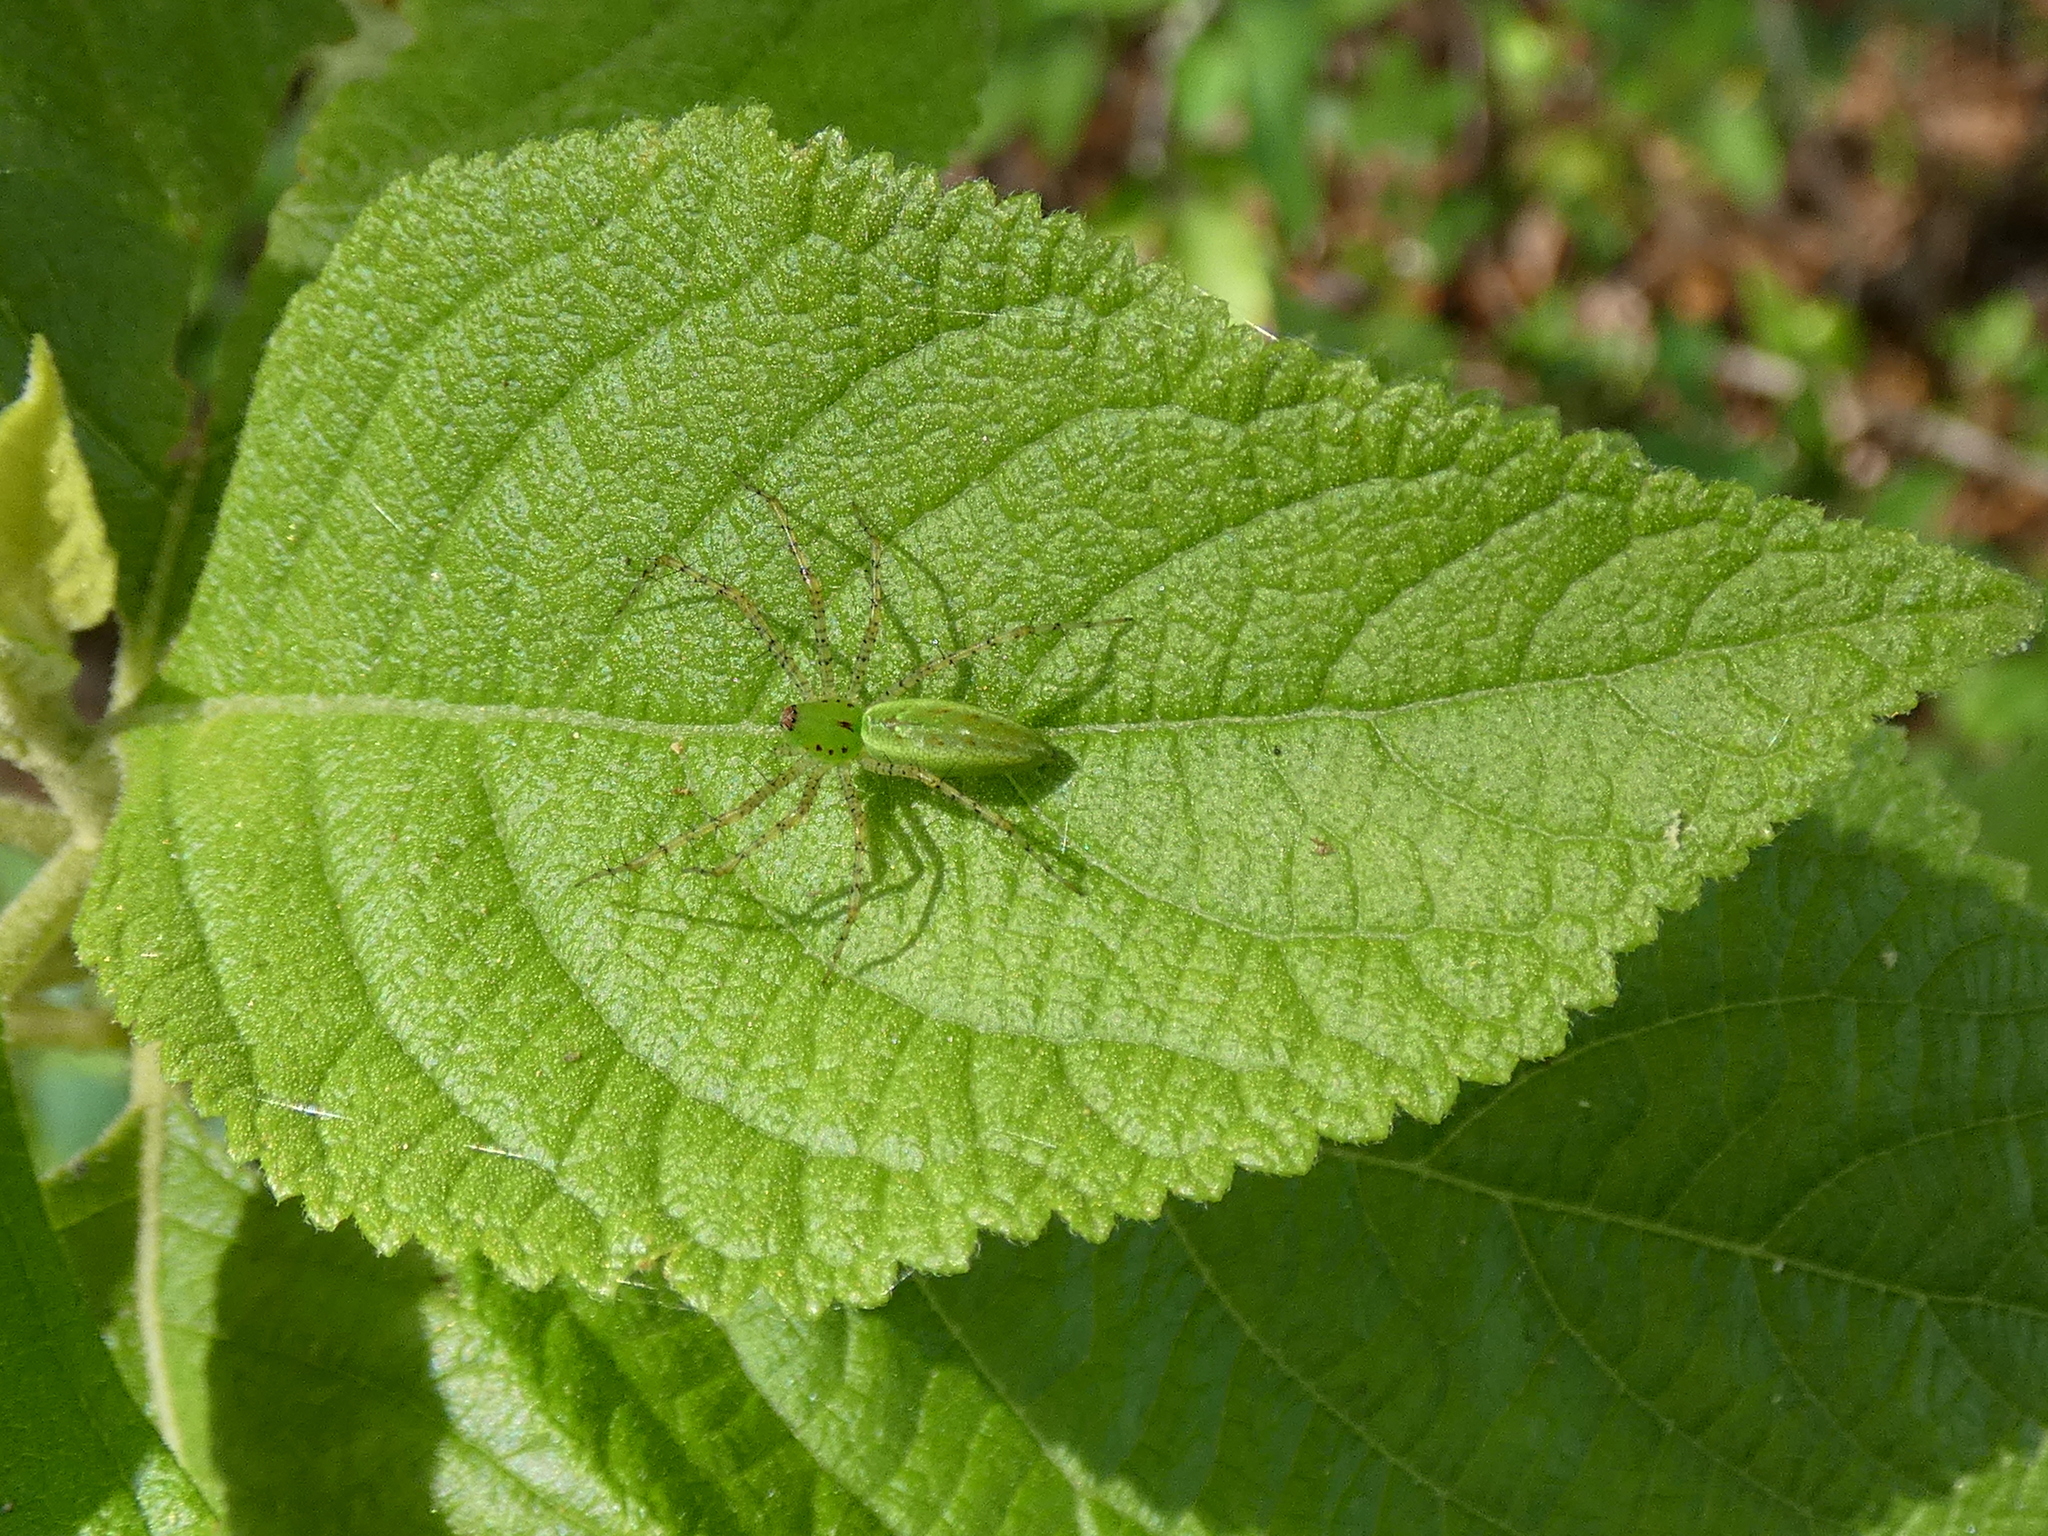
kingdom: Animalia
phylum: Arthropoda
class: Arachnida
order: Araneae
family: Oxyopidae
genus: Peucetia
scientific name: Peucetia viridans
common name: Lynx spiders
